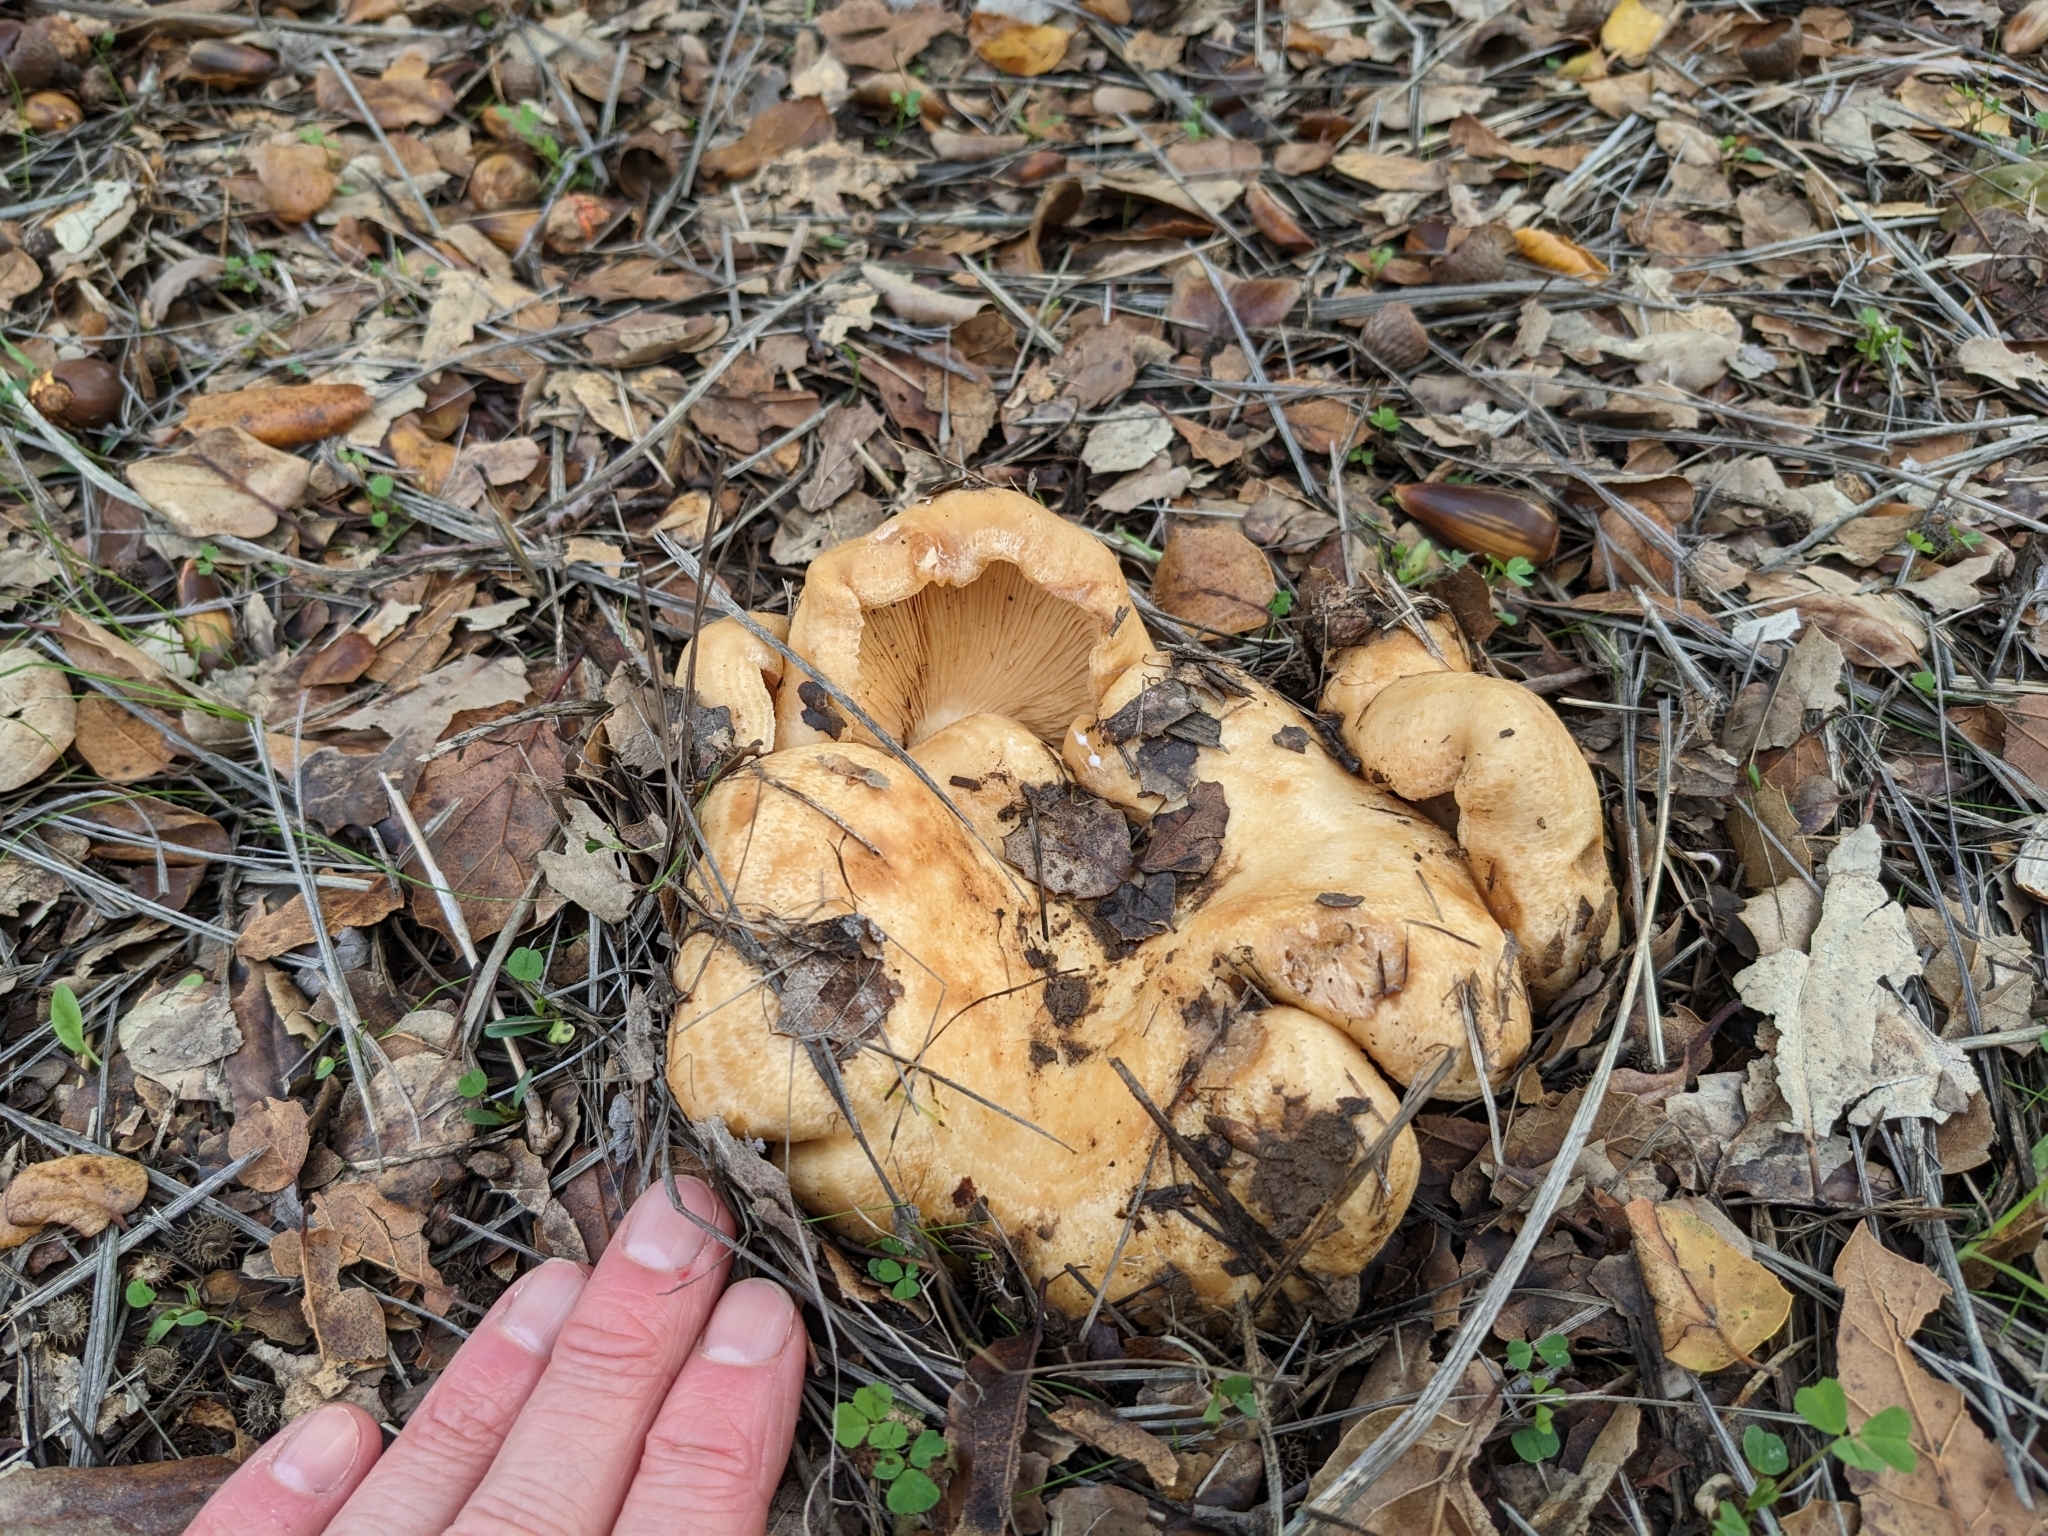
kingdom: Fungi
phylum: Basidiomycota
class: Agaricomycetes
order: Russulales
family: Russulaceae
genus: Lactarius
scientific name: Lactarius alnicola
